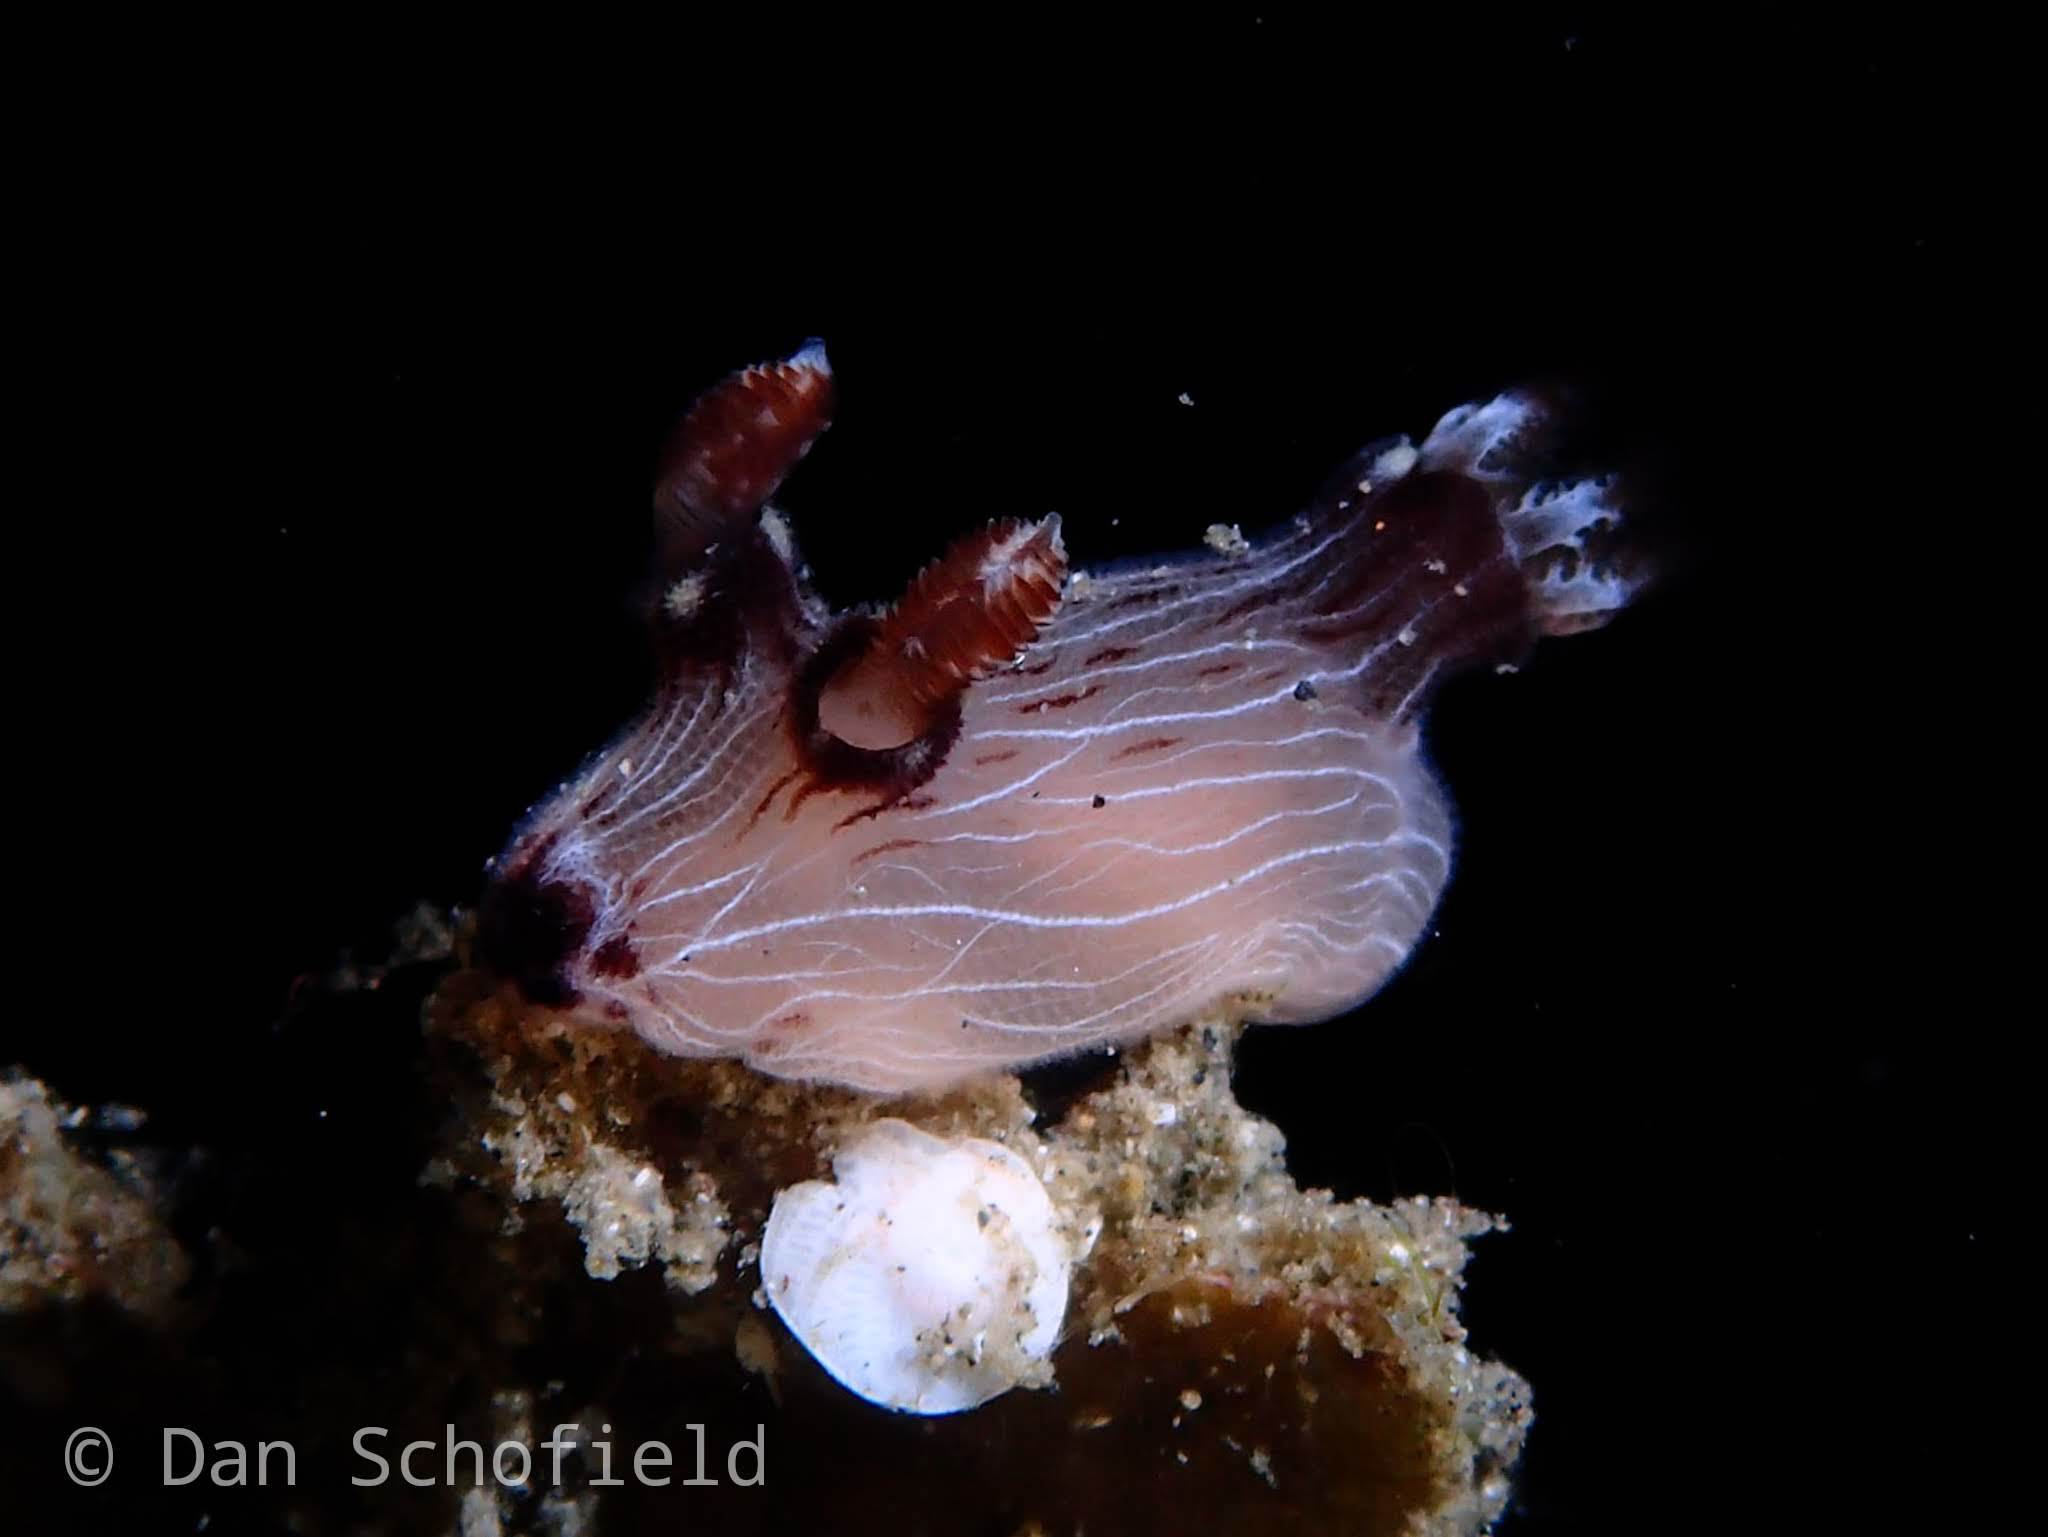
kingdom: Animalia
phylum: Mollusca
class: Gastropoda
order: Nudibranchia
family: Discodorididae
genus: Jorunna
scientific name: Jorunna rubescens
